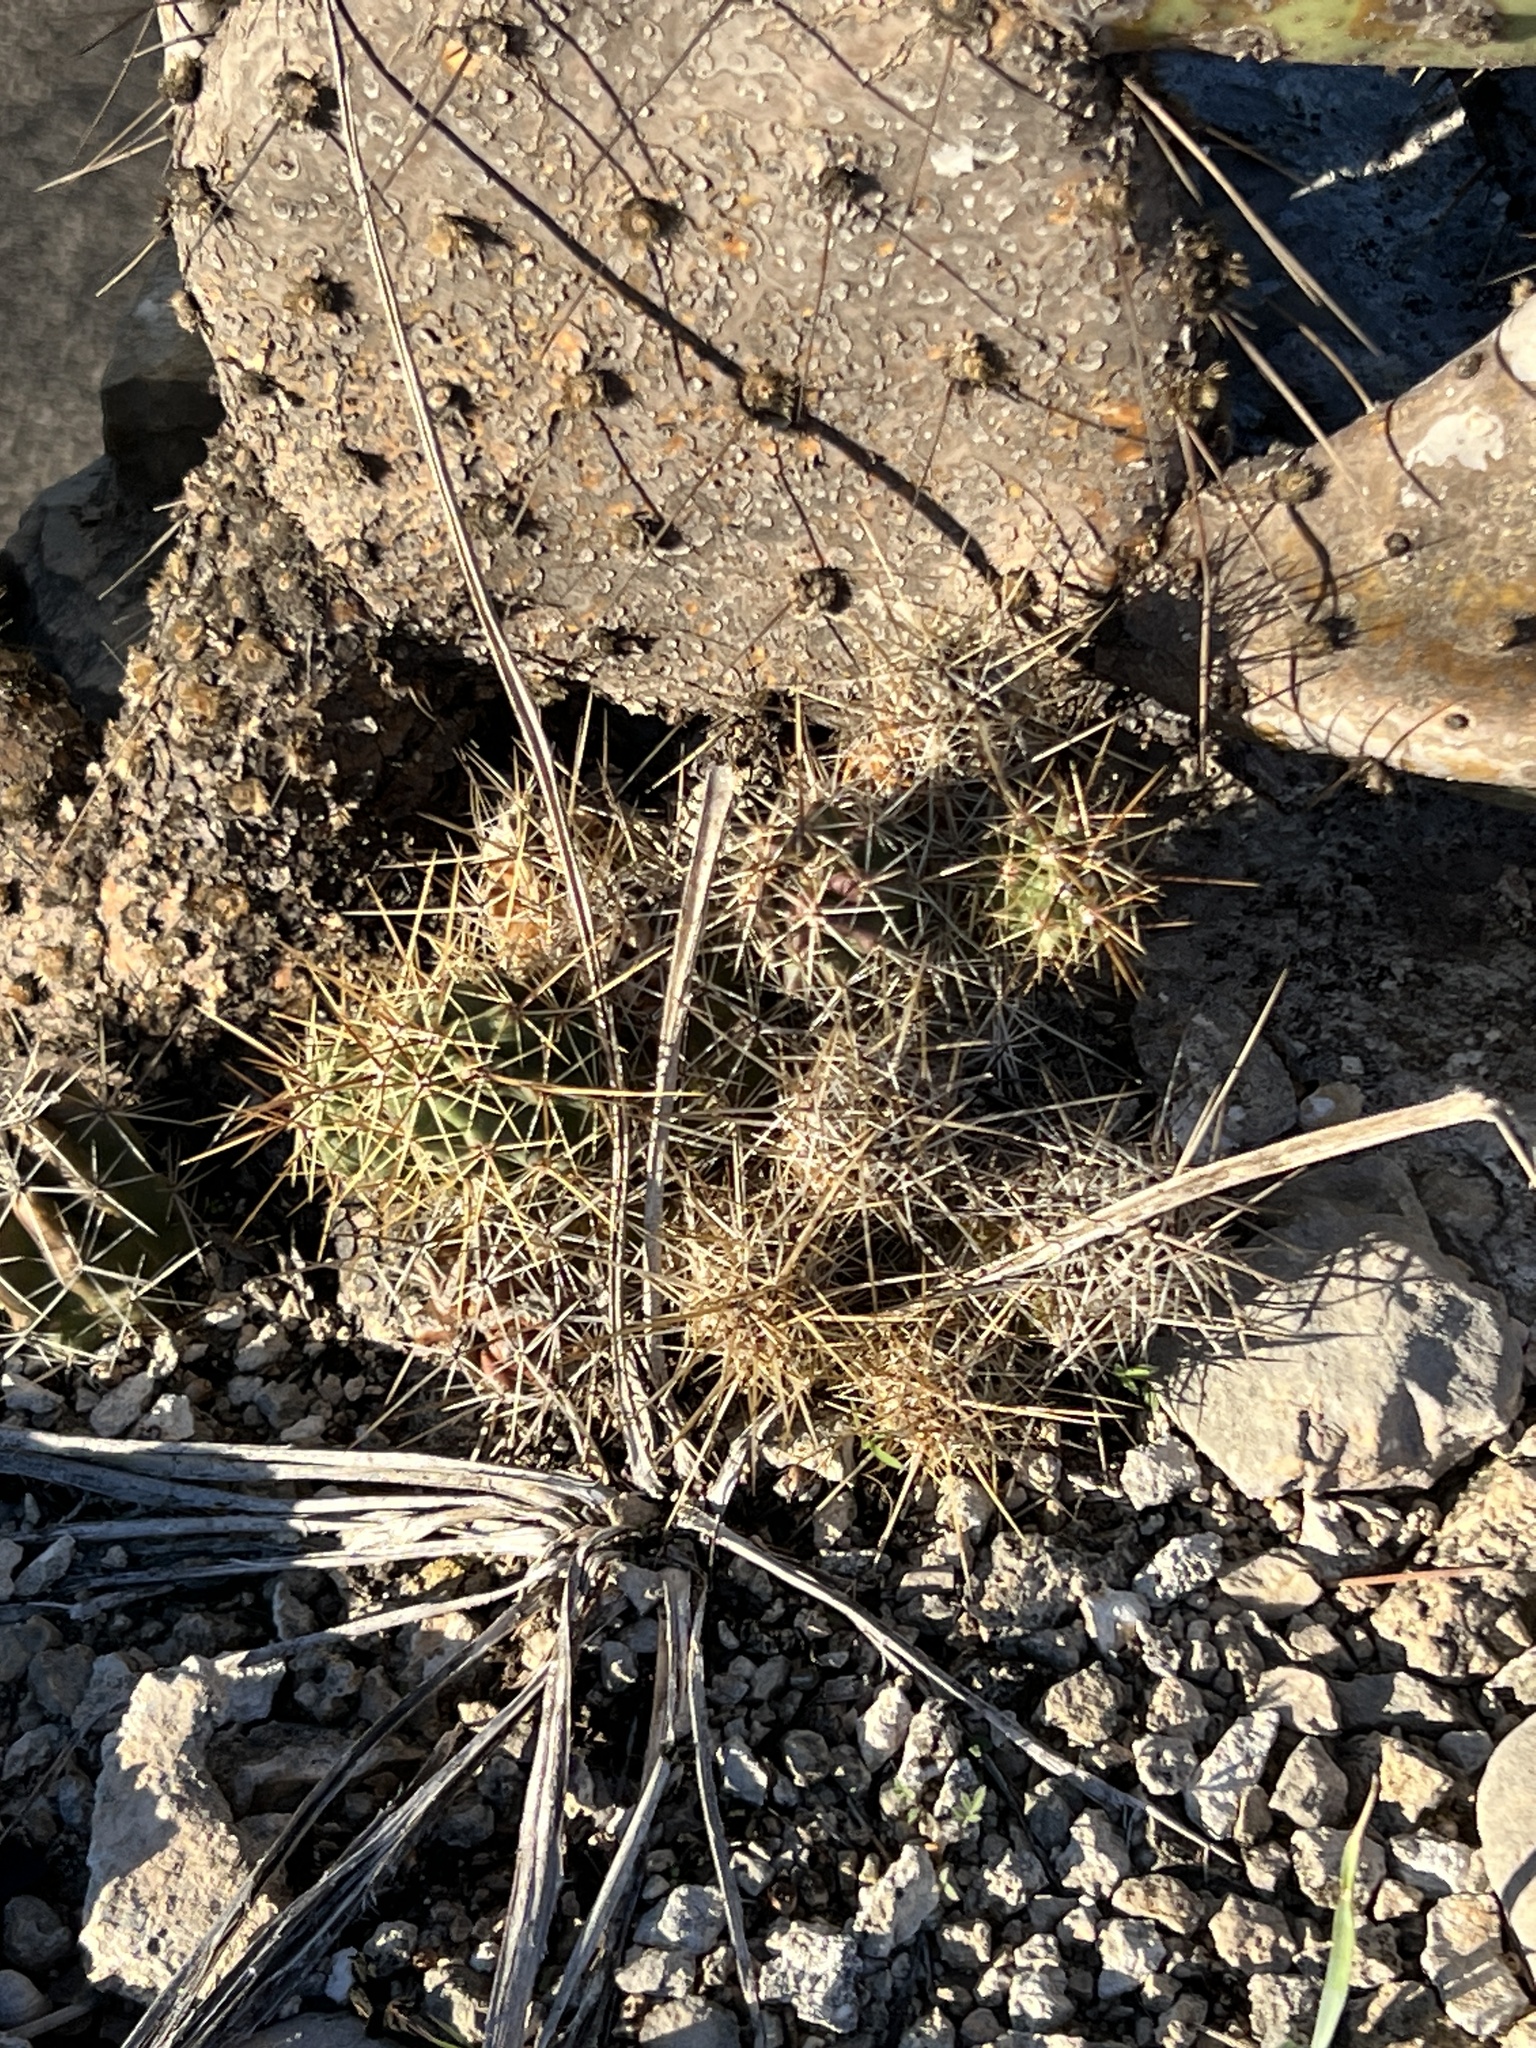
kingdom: Plantae
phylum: Tracheophyta
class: Magnoliopsida
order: Caryophyllales
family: Cactaceae
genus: Echinocereus
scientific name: Echinocereus enneacanthus
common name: Pitaya
